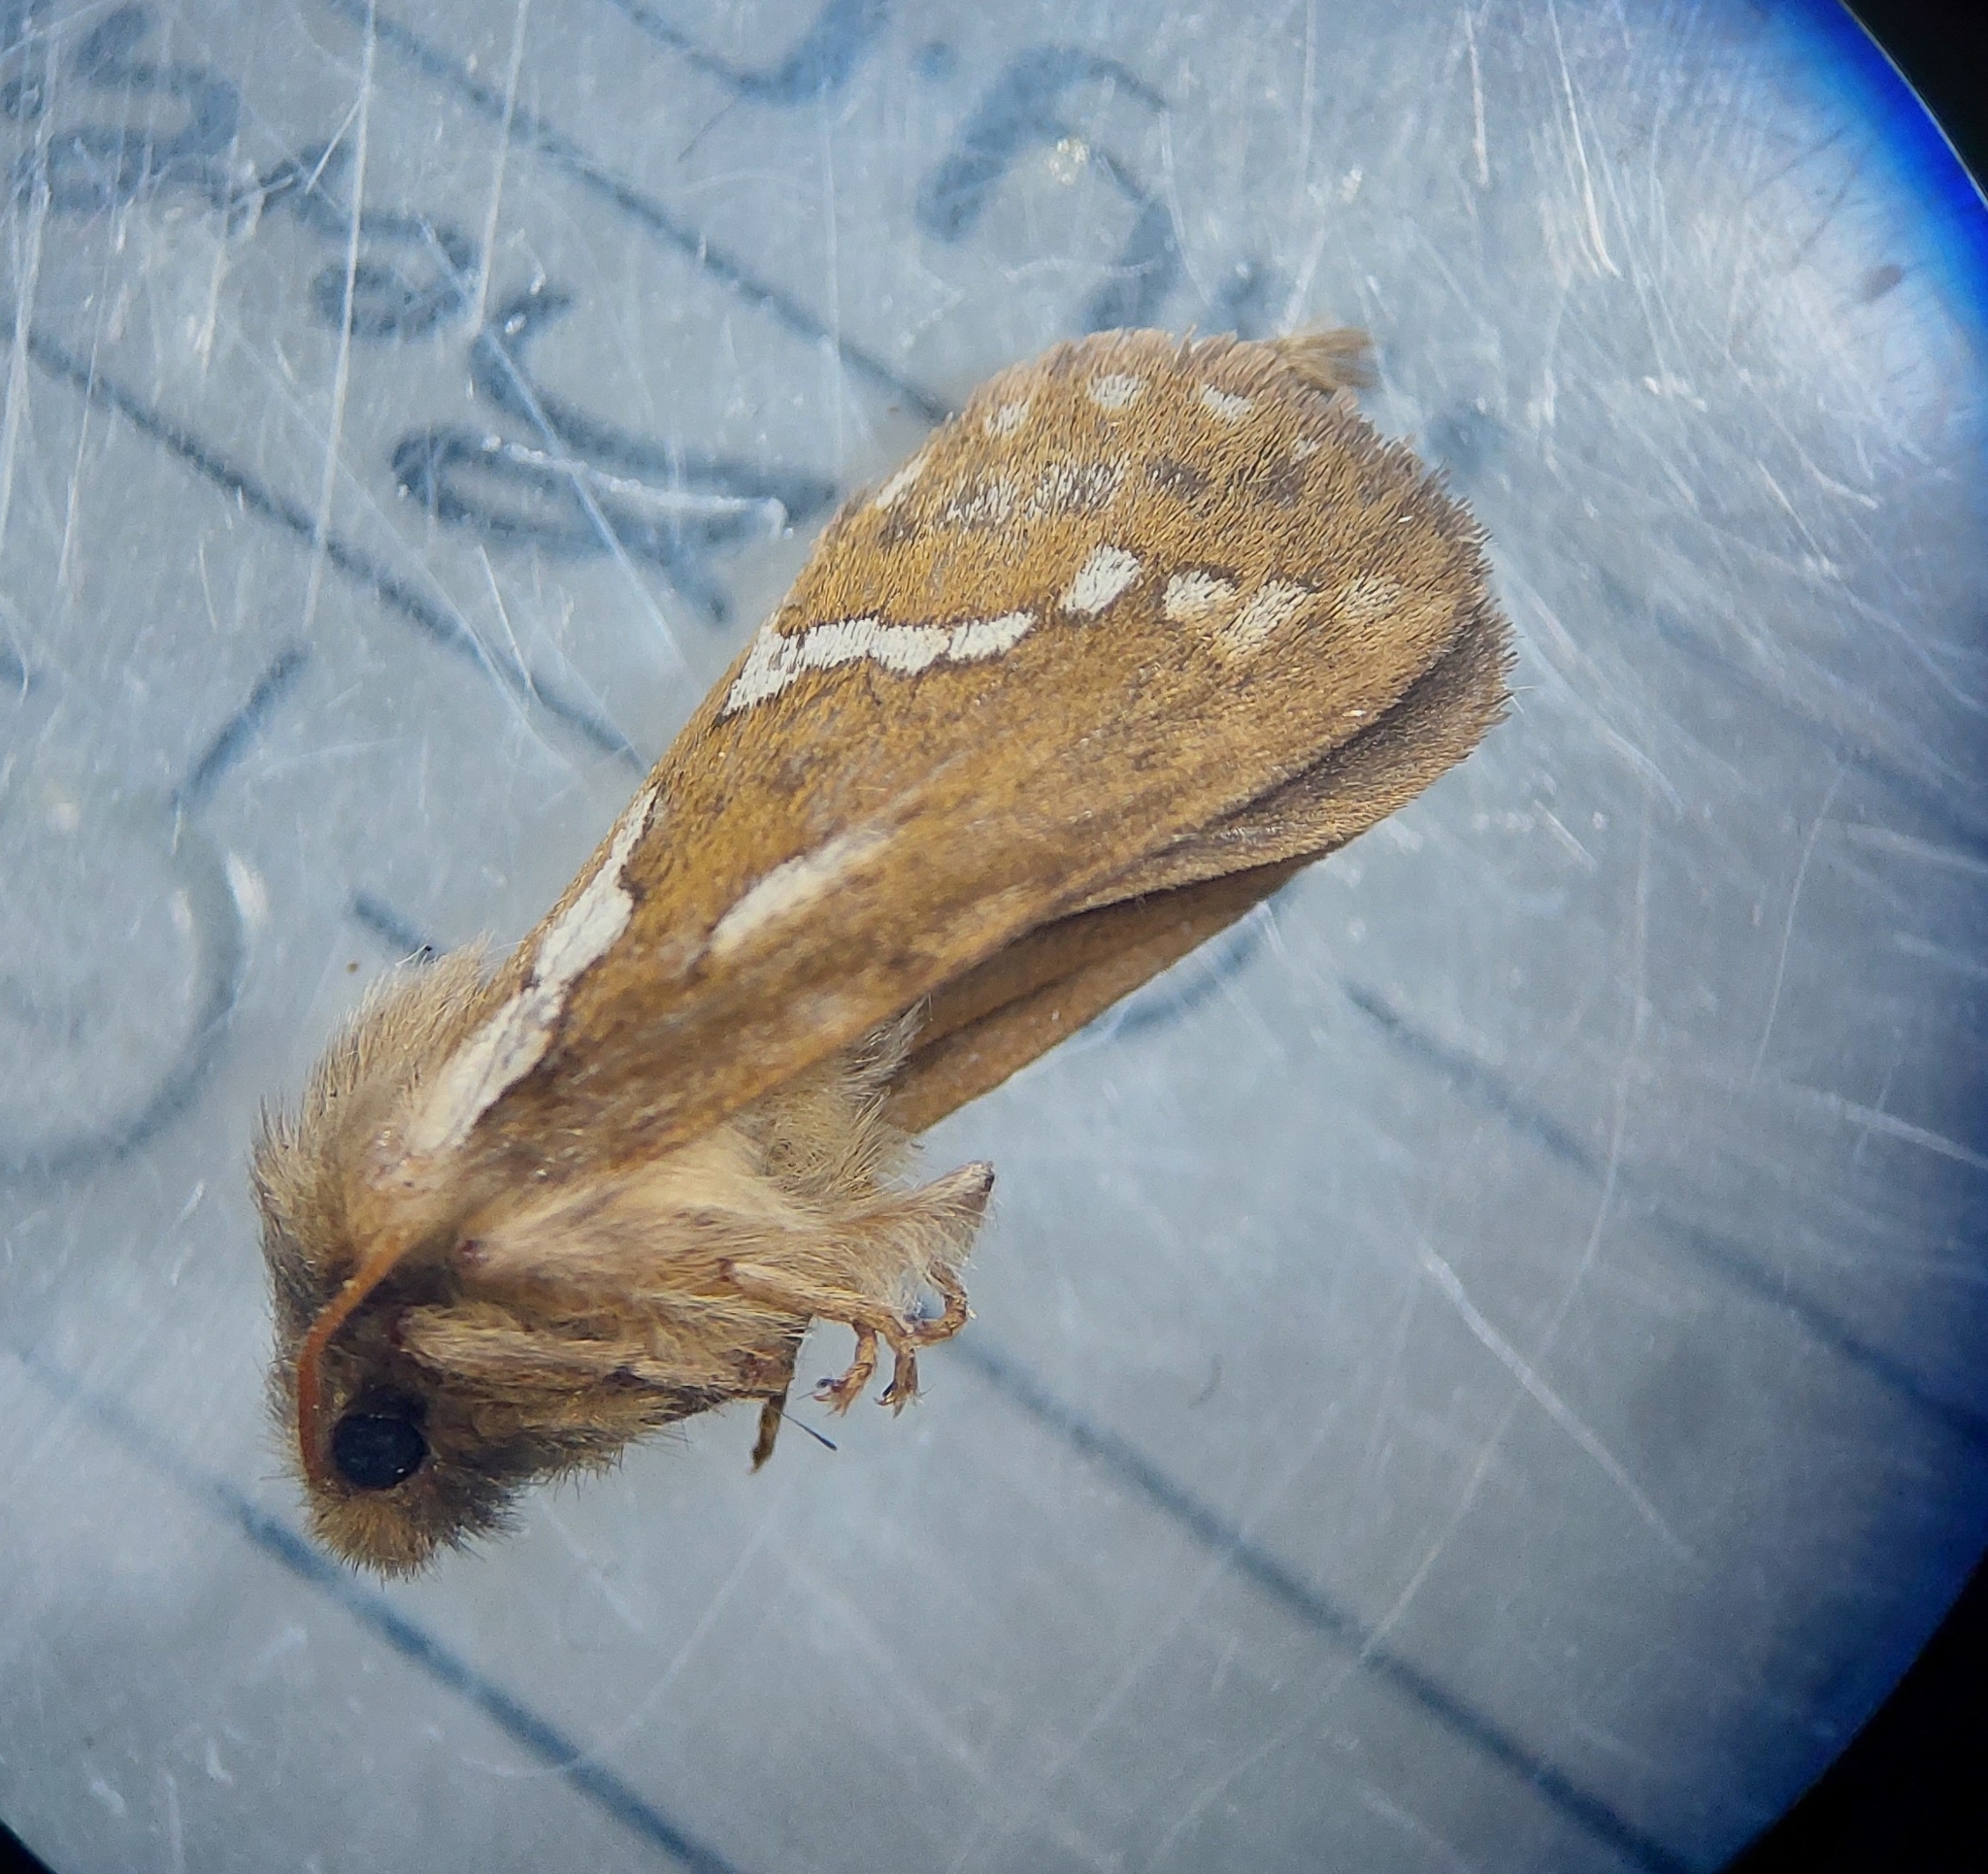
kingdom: Animalia
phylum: Arthropoda
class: Insecta
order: Lepidoptera
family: Hepialidae
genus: Korscheltellus
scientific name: Korscheltellus lupulina
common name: Common swift
